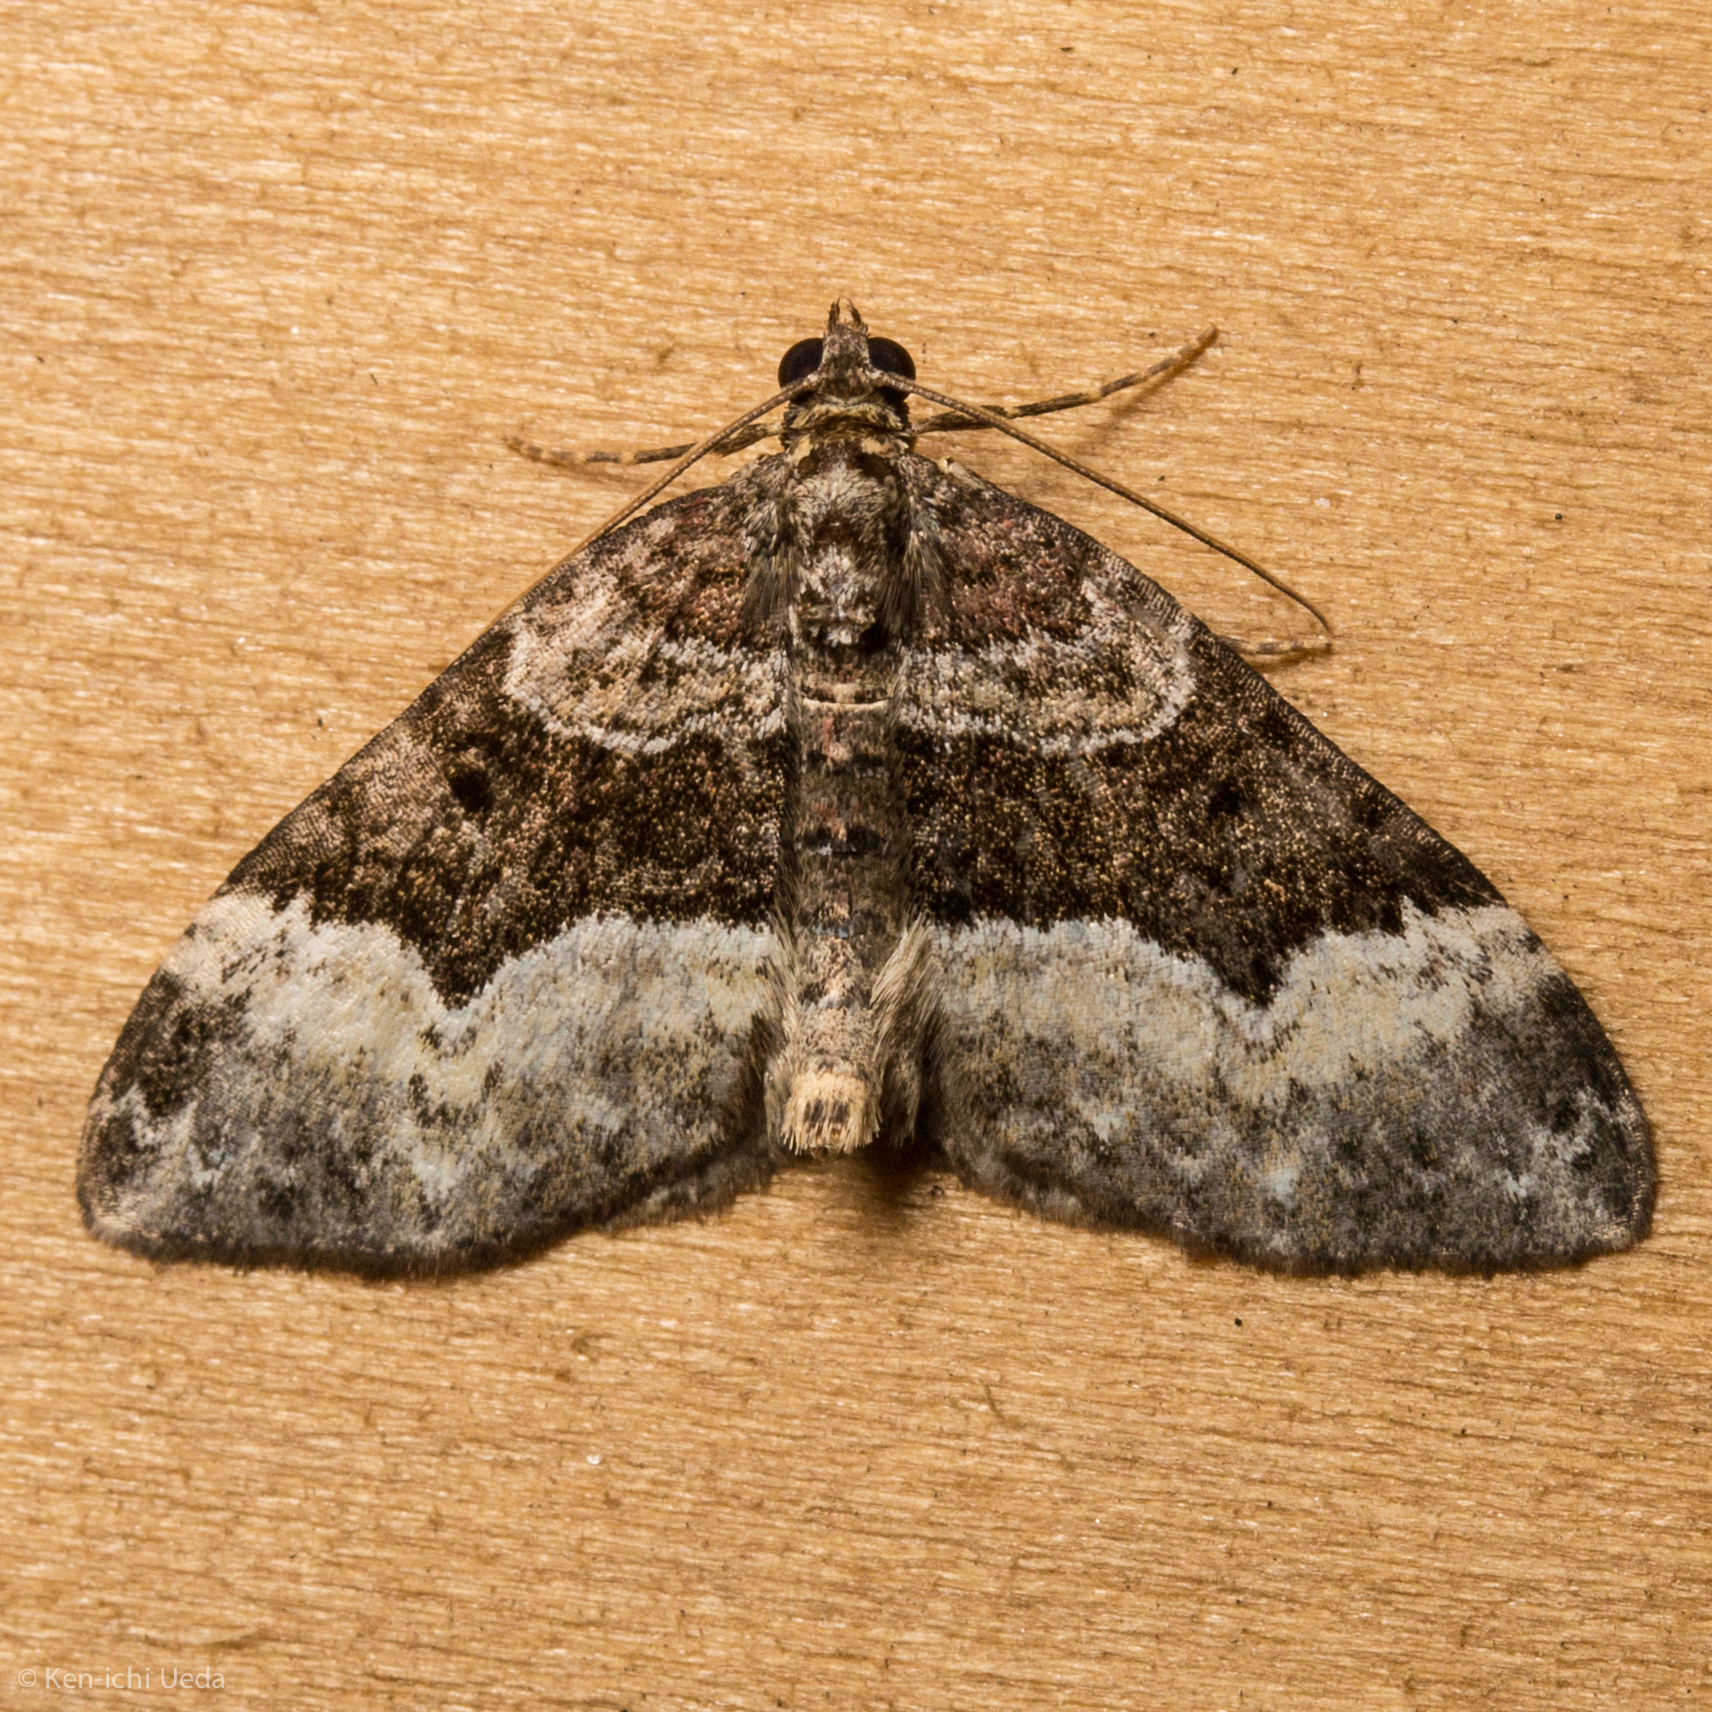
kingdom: Animalia
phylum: Arthropoda
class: Insecta
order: Lepidoptera
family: Geometridae
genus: Euphyia
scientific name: Euphyia intermediata
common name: Sharp-angled carpet
